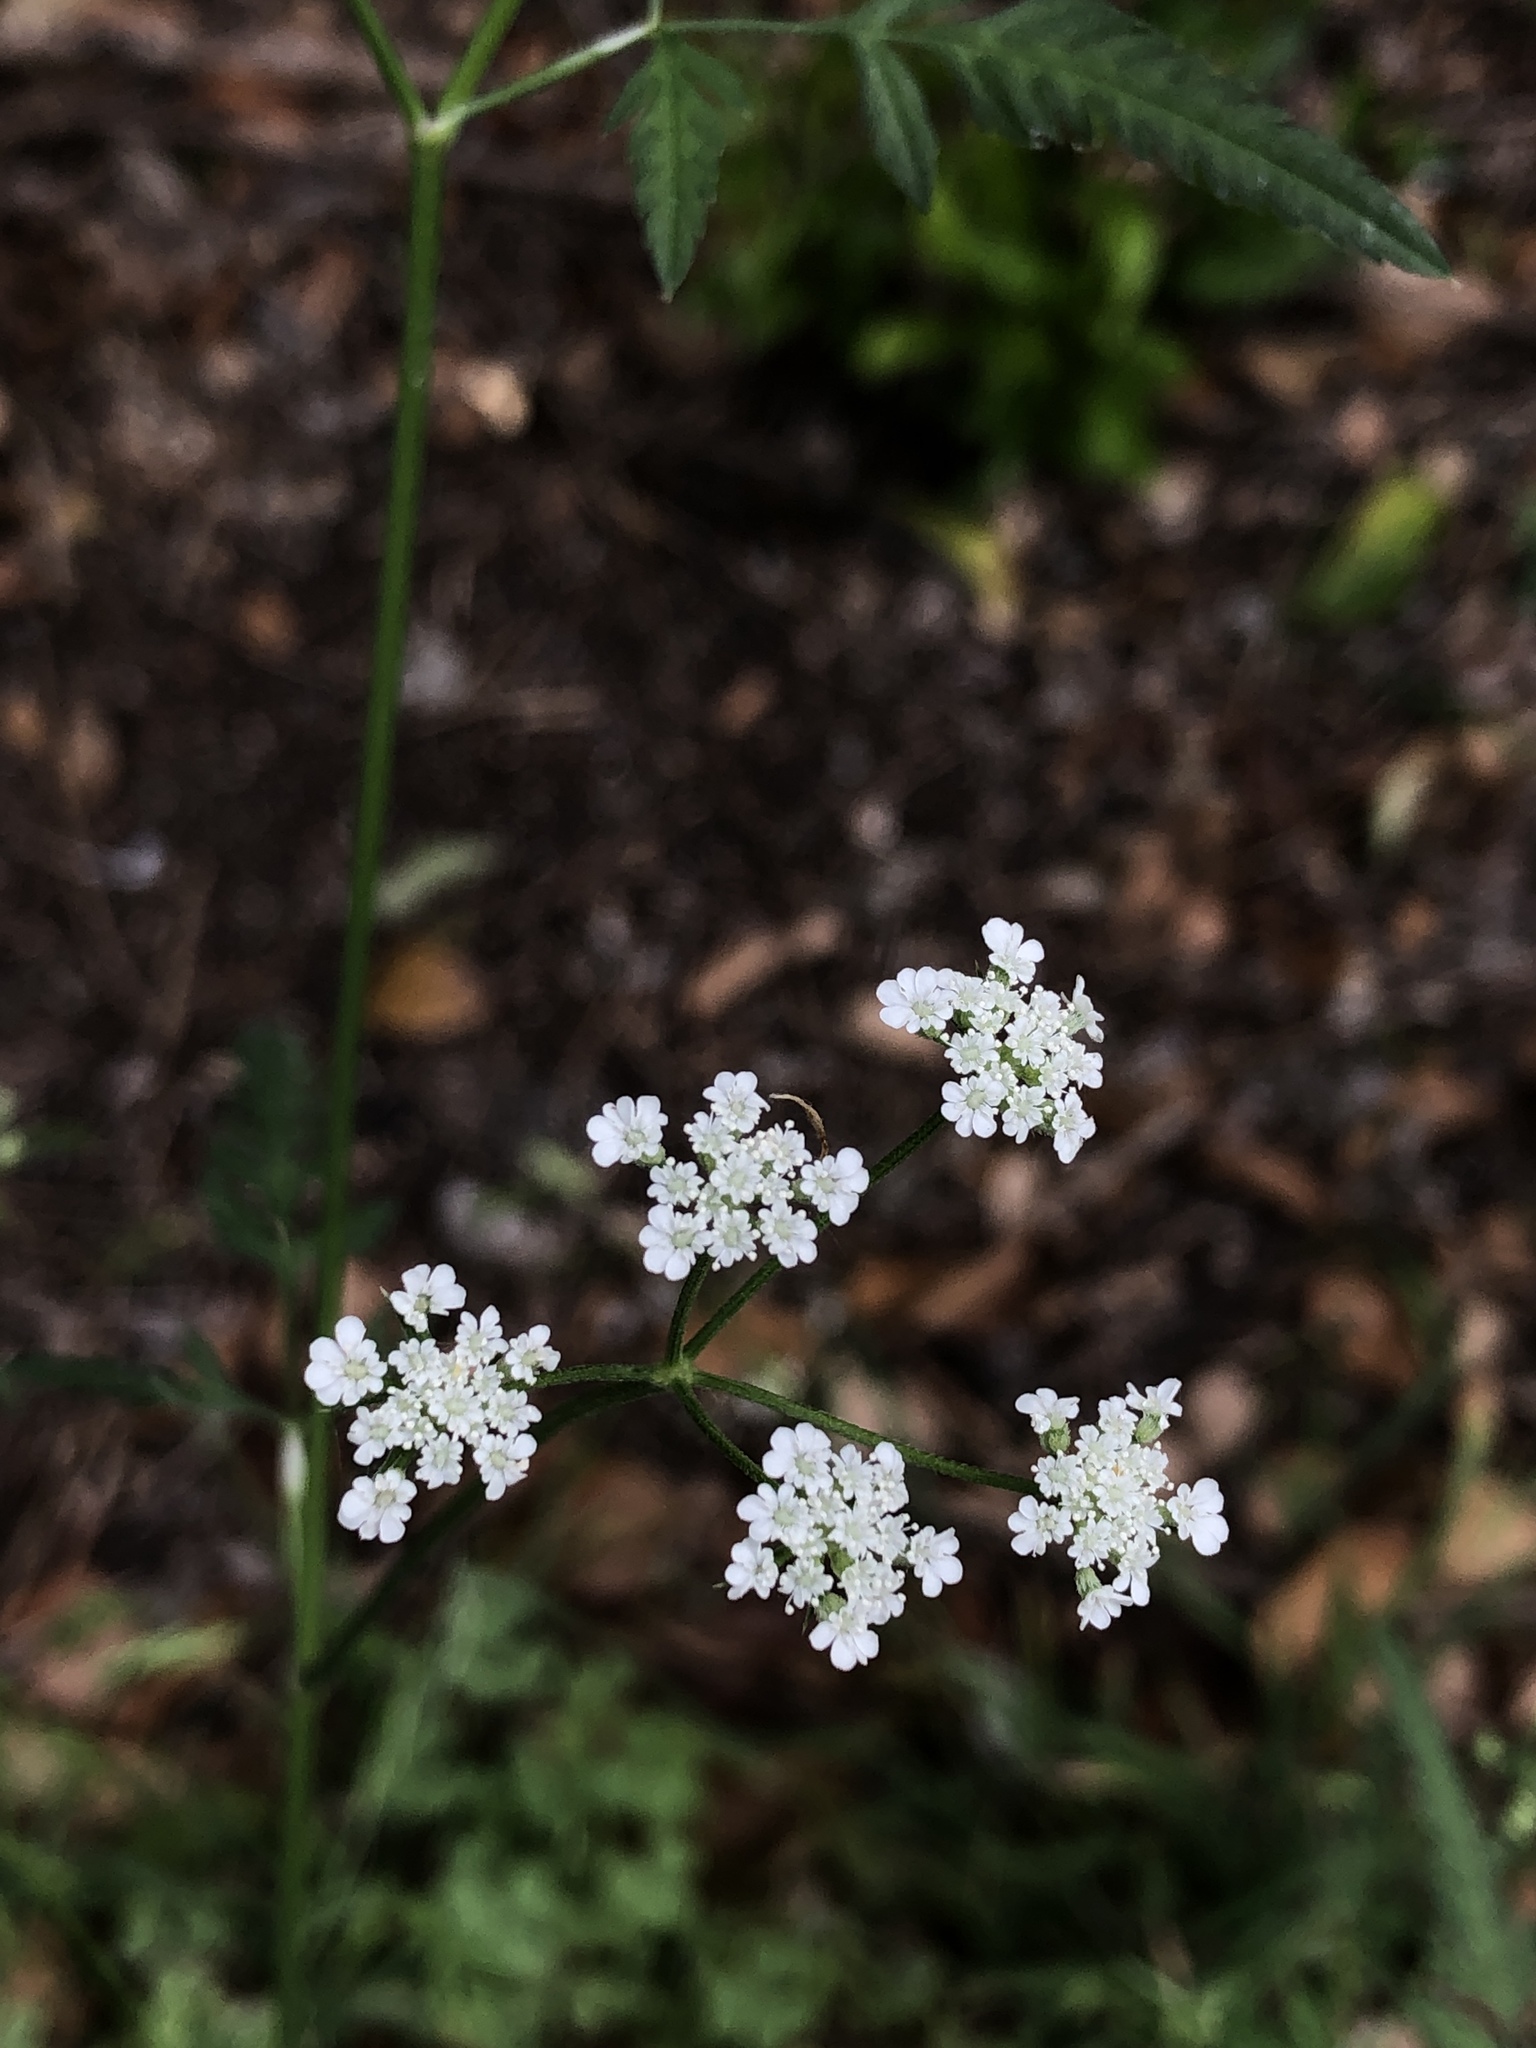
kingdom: Plantae
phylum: Tracheophyta
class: Magnoliopsida
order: Apiales
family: Apiaceae
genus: Torilis
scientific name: Torilis arvensis
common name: Spreading hedge-parsley
